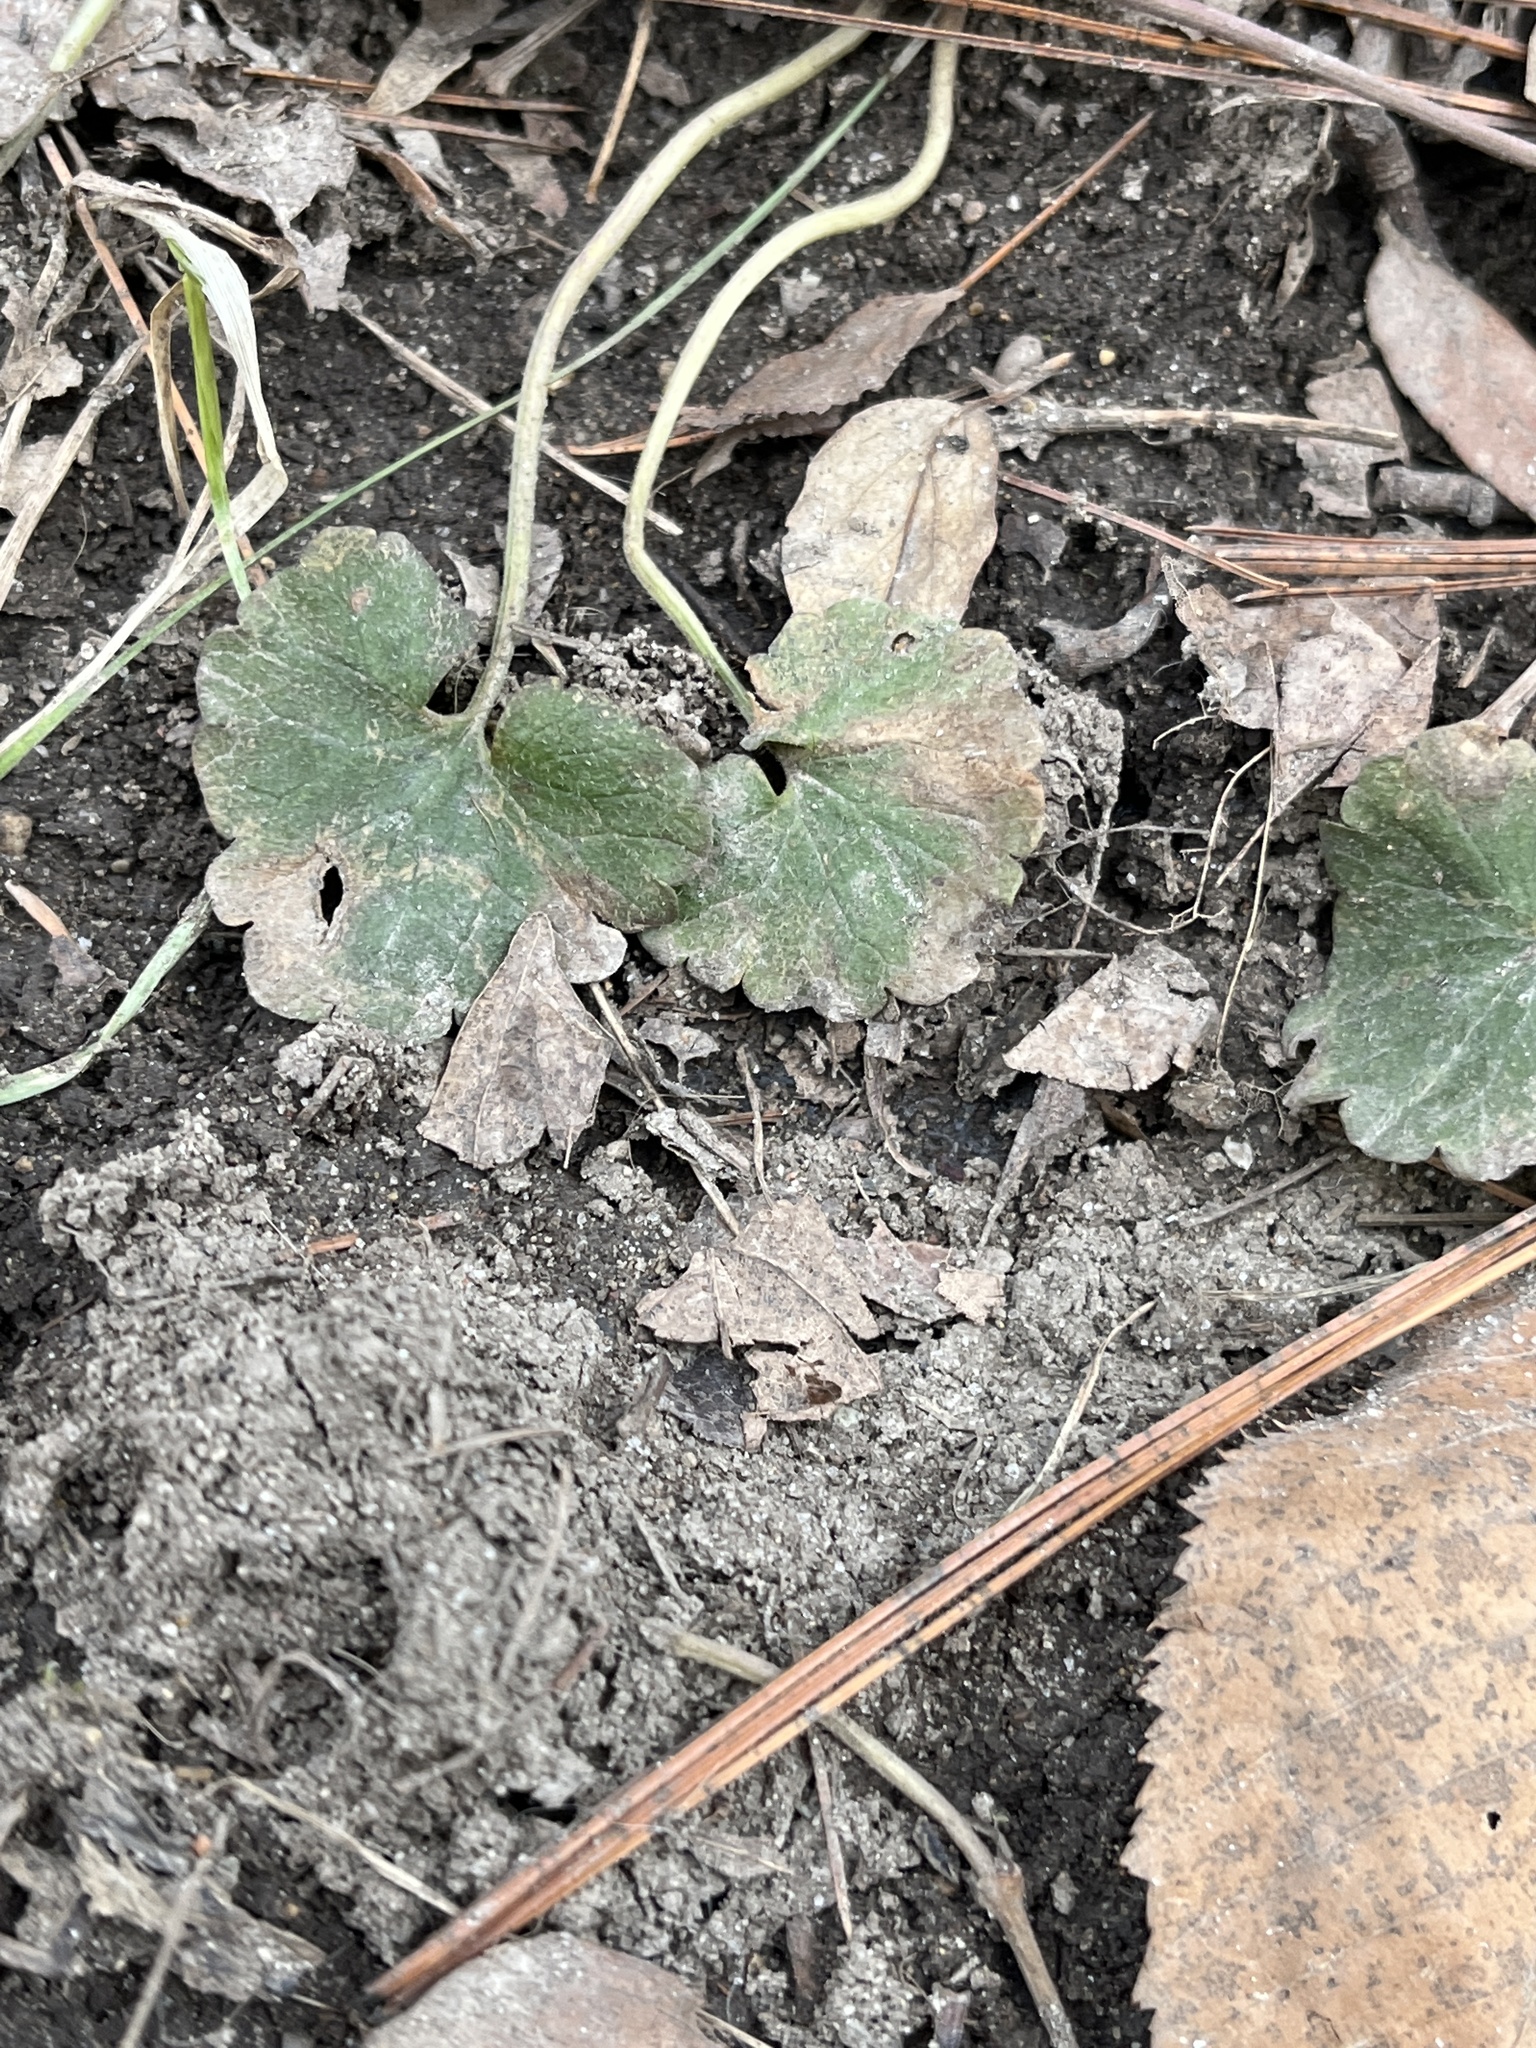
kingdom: Plantae
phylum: Tracheophyta
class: Magnoliopsida
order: Lamiales
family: Lamiaceae
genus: Glechoma
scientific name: Glechoma hederacea
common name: Ground ivy
